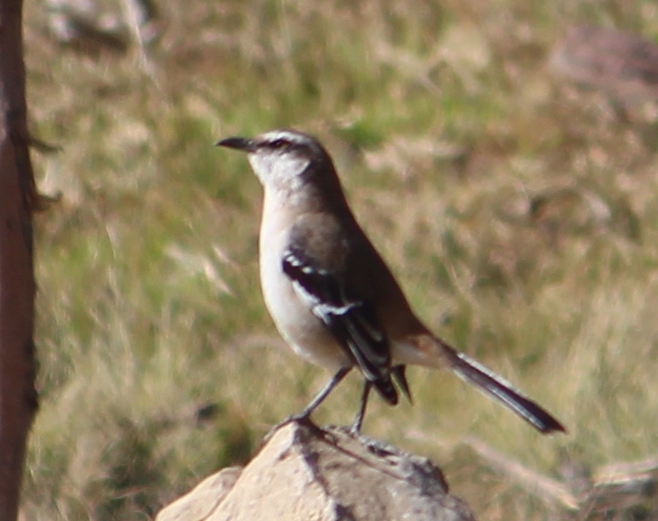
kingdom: Animalia
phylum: Chordata
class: Aves
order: Passeriformes
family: Mimidae
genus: Mimus
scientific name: Mimus dorsalis
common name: Brown-backed mockingbird
